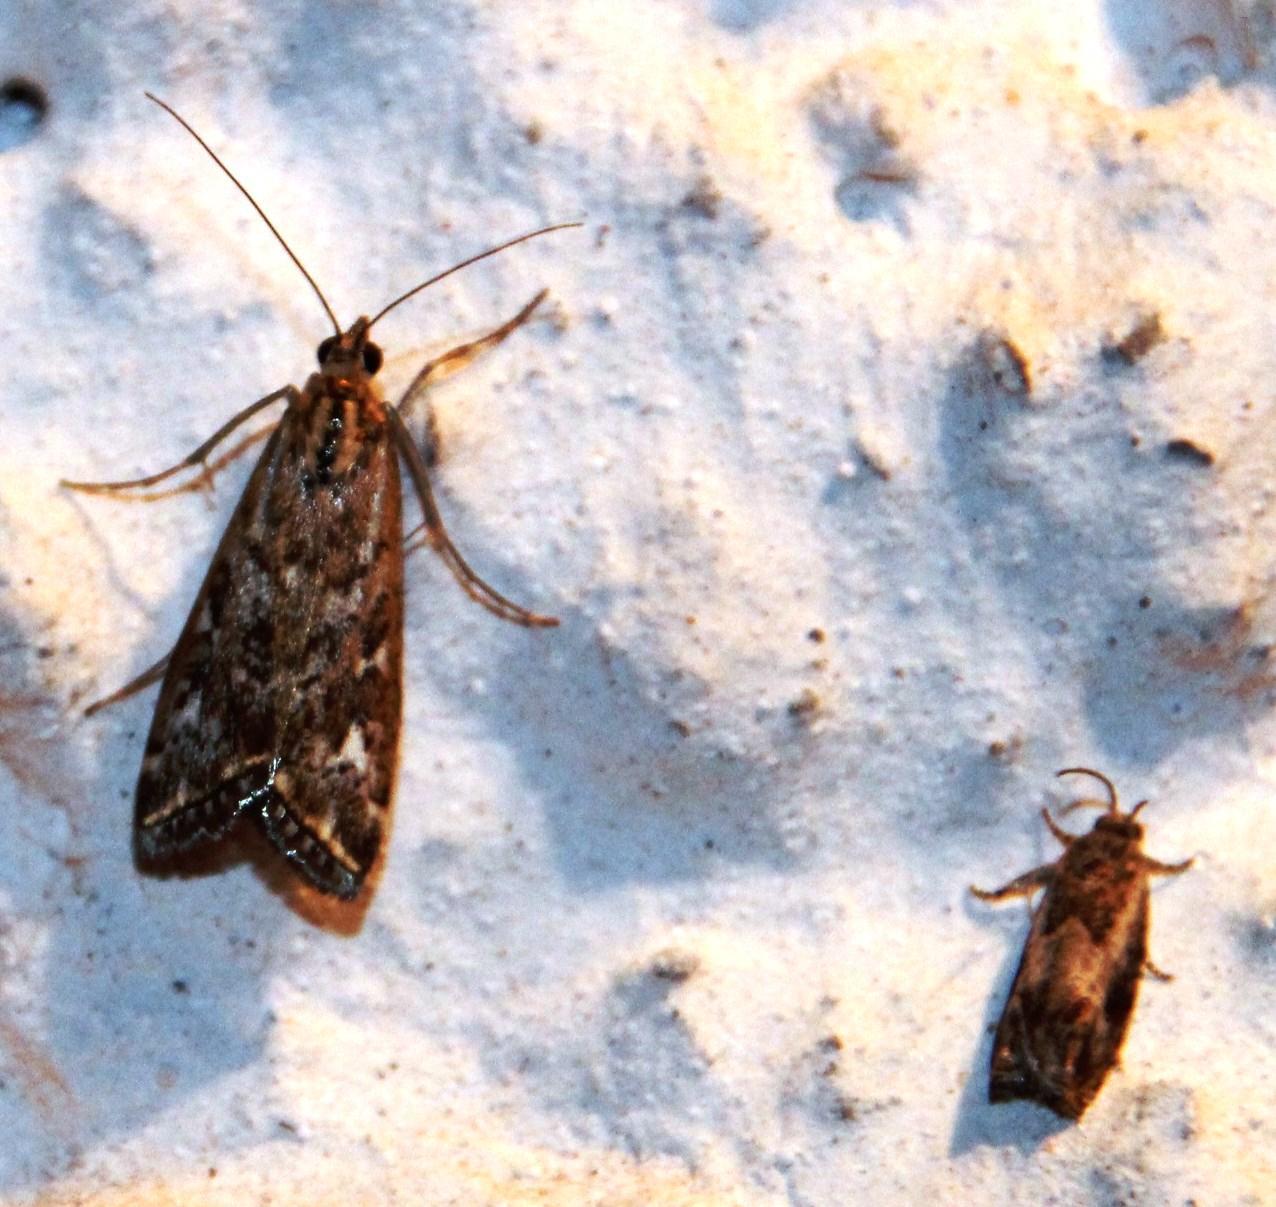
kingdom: Animalia
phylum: Arthropoda
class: Insecta
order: Lepidoptera
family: Crambidae
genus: Loxostege
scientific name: Loxostege frustalis
